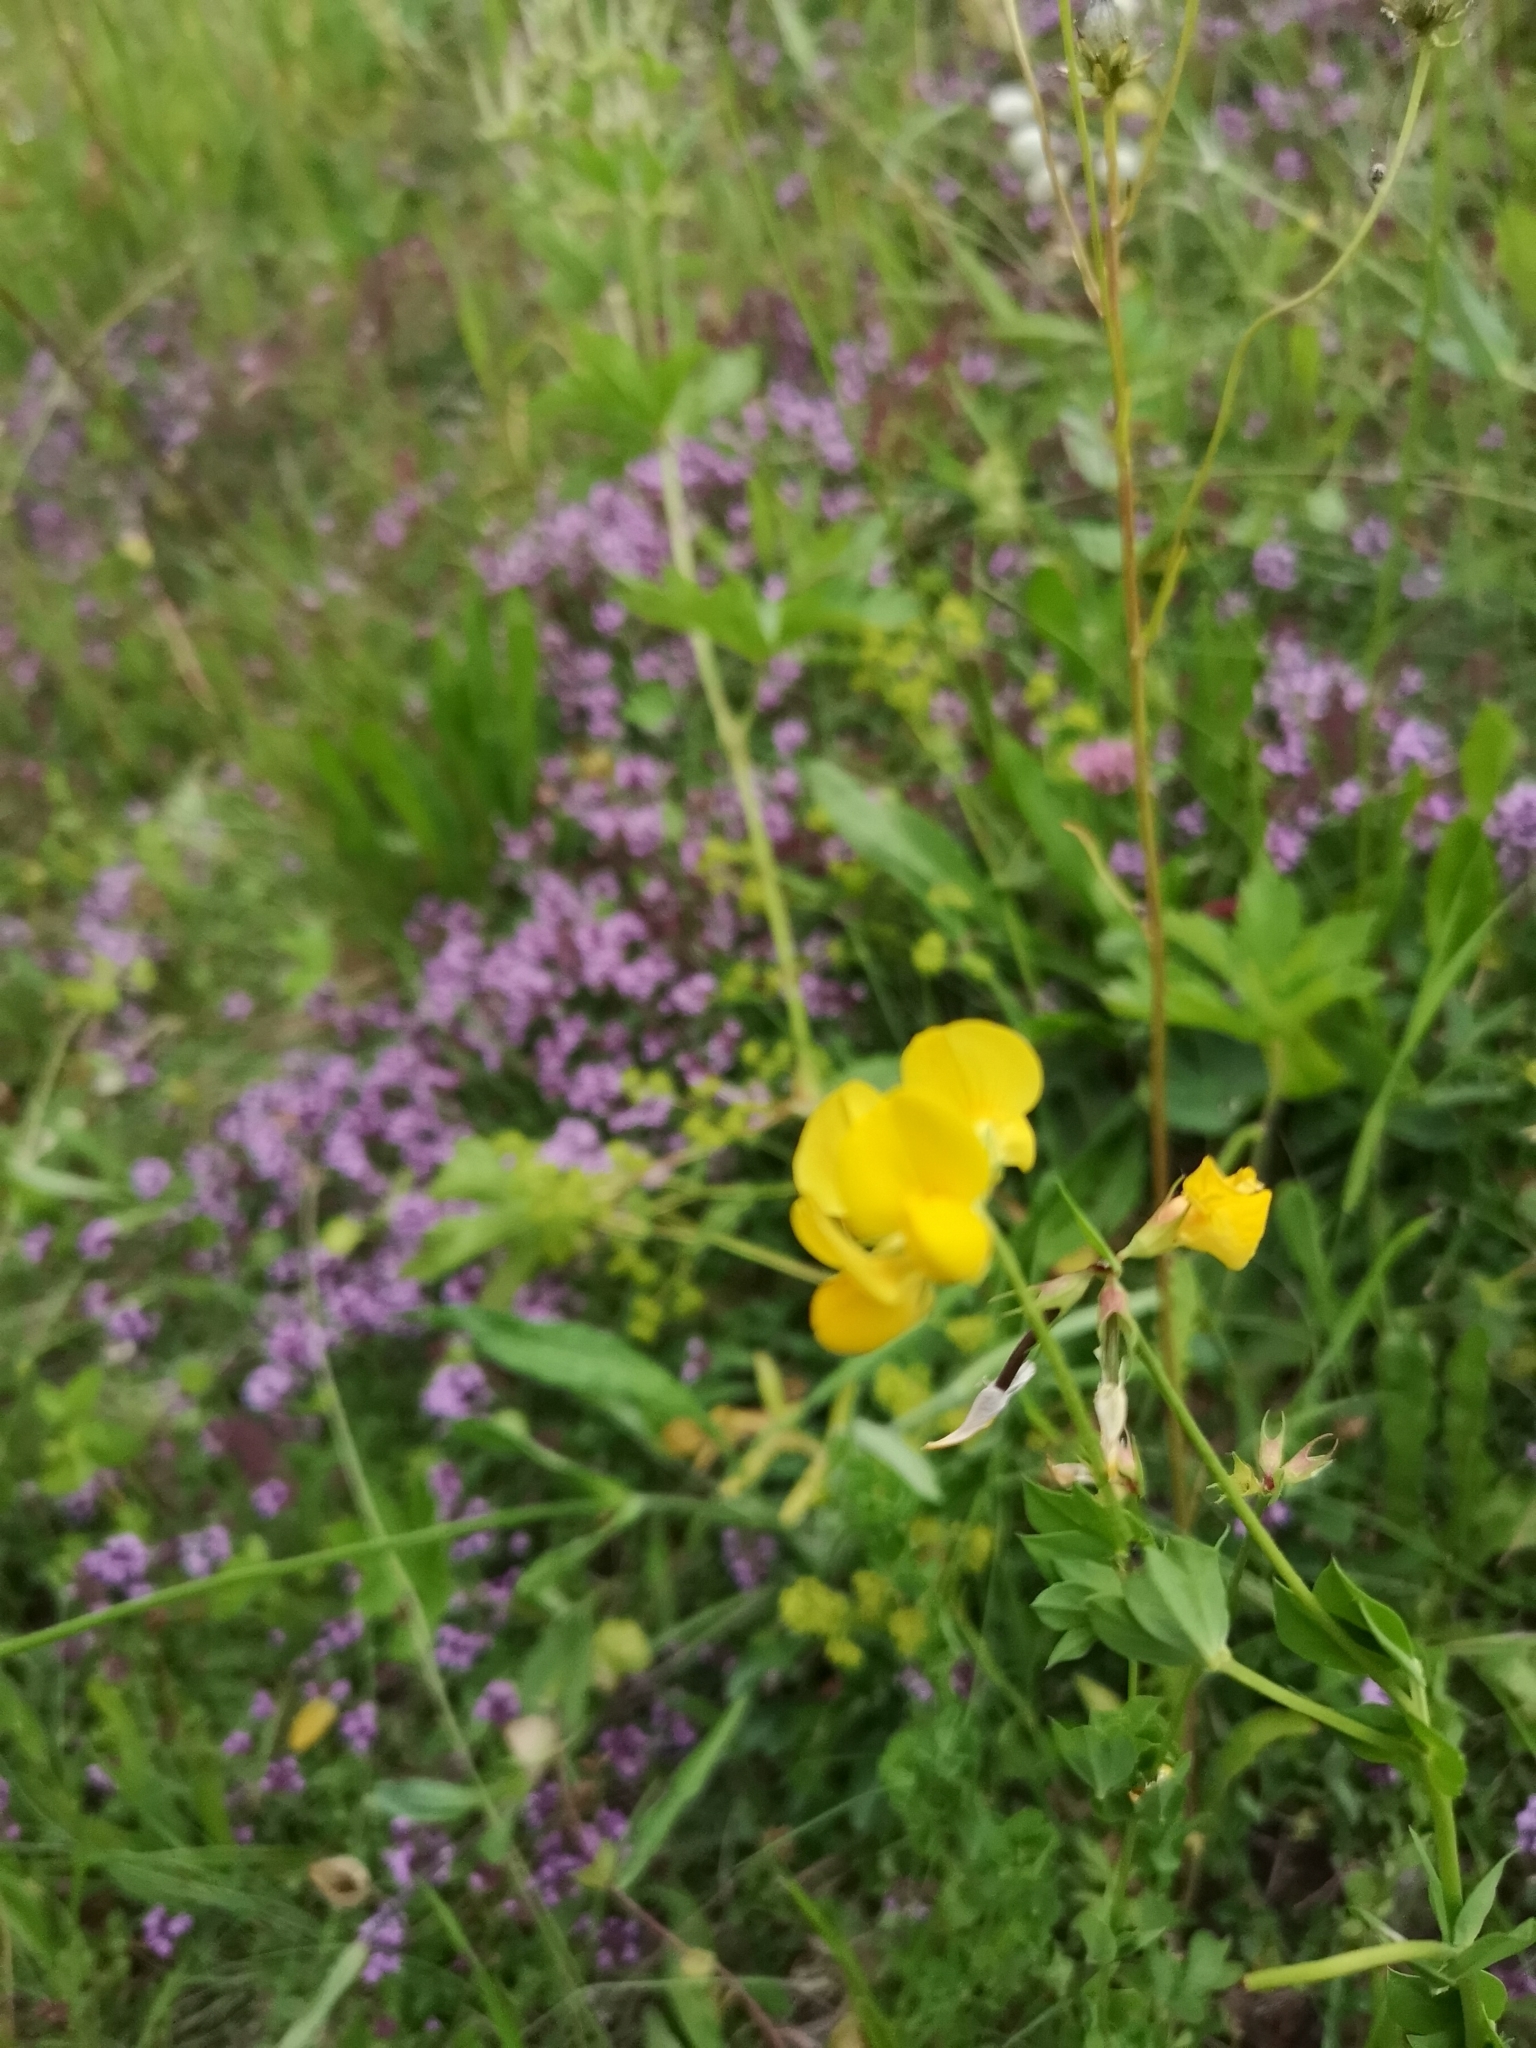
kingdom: Plantae
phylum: Tracheophyta
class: Magnoliopsida
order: Fabales
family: Fabaceae
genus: Lotus
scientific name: Lotus corniculatus
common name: Common bird's-foot-trefoil
